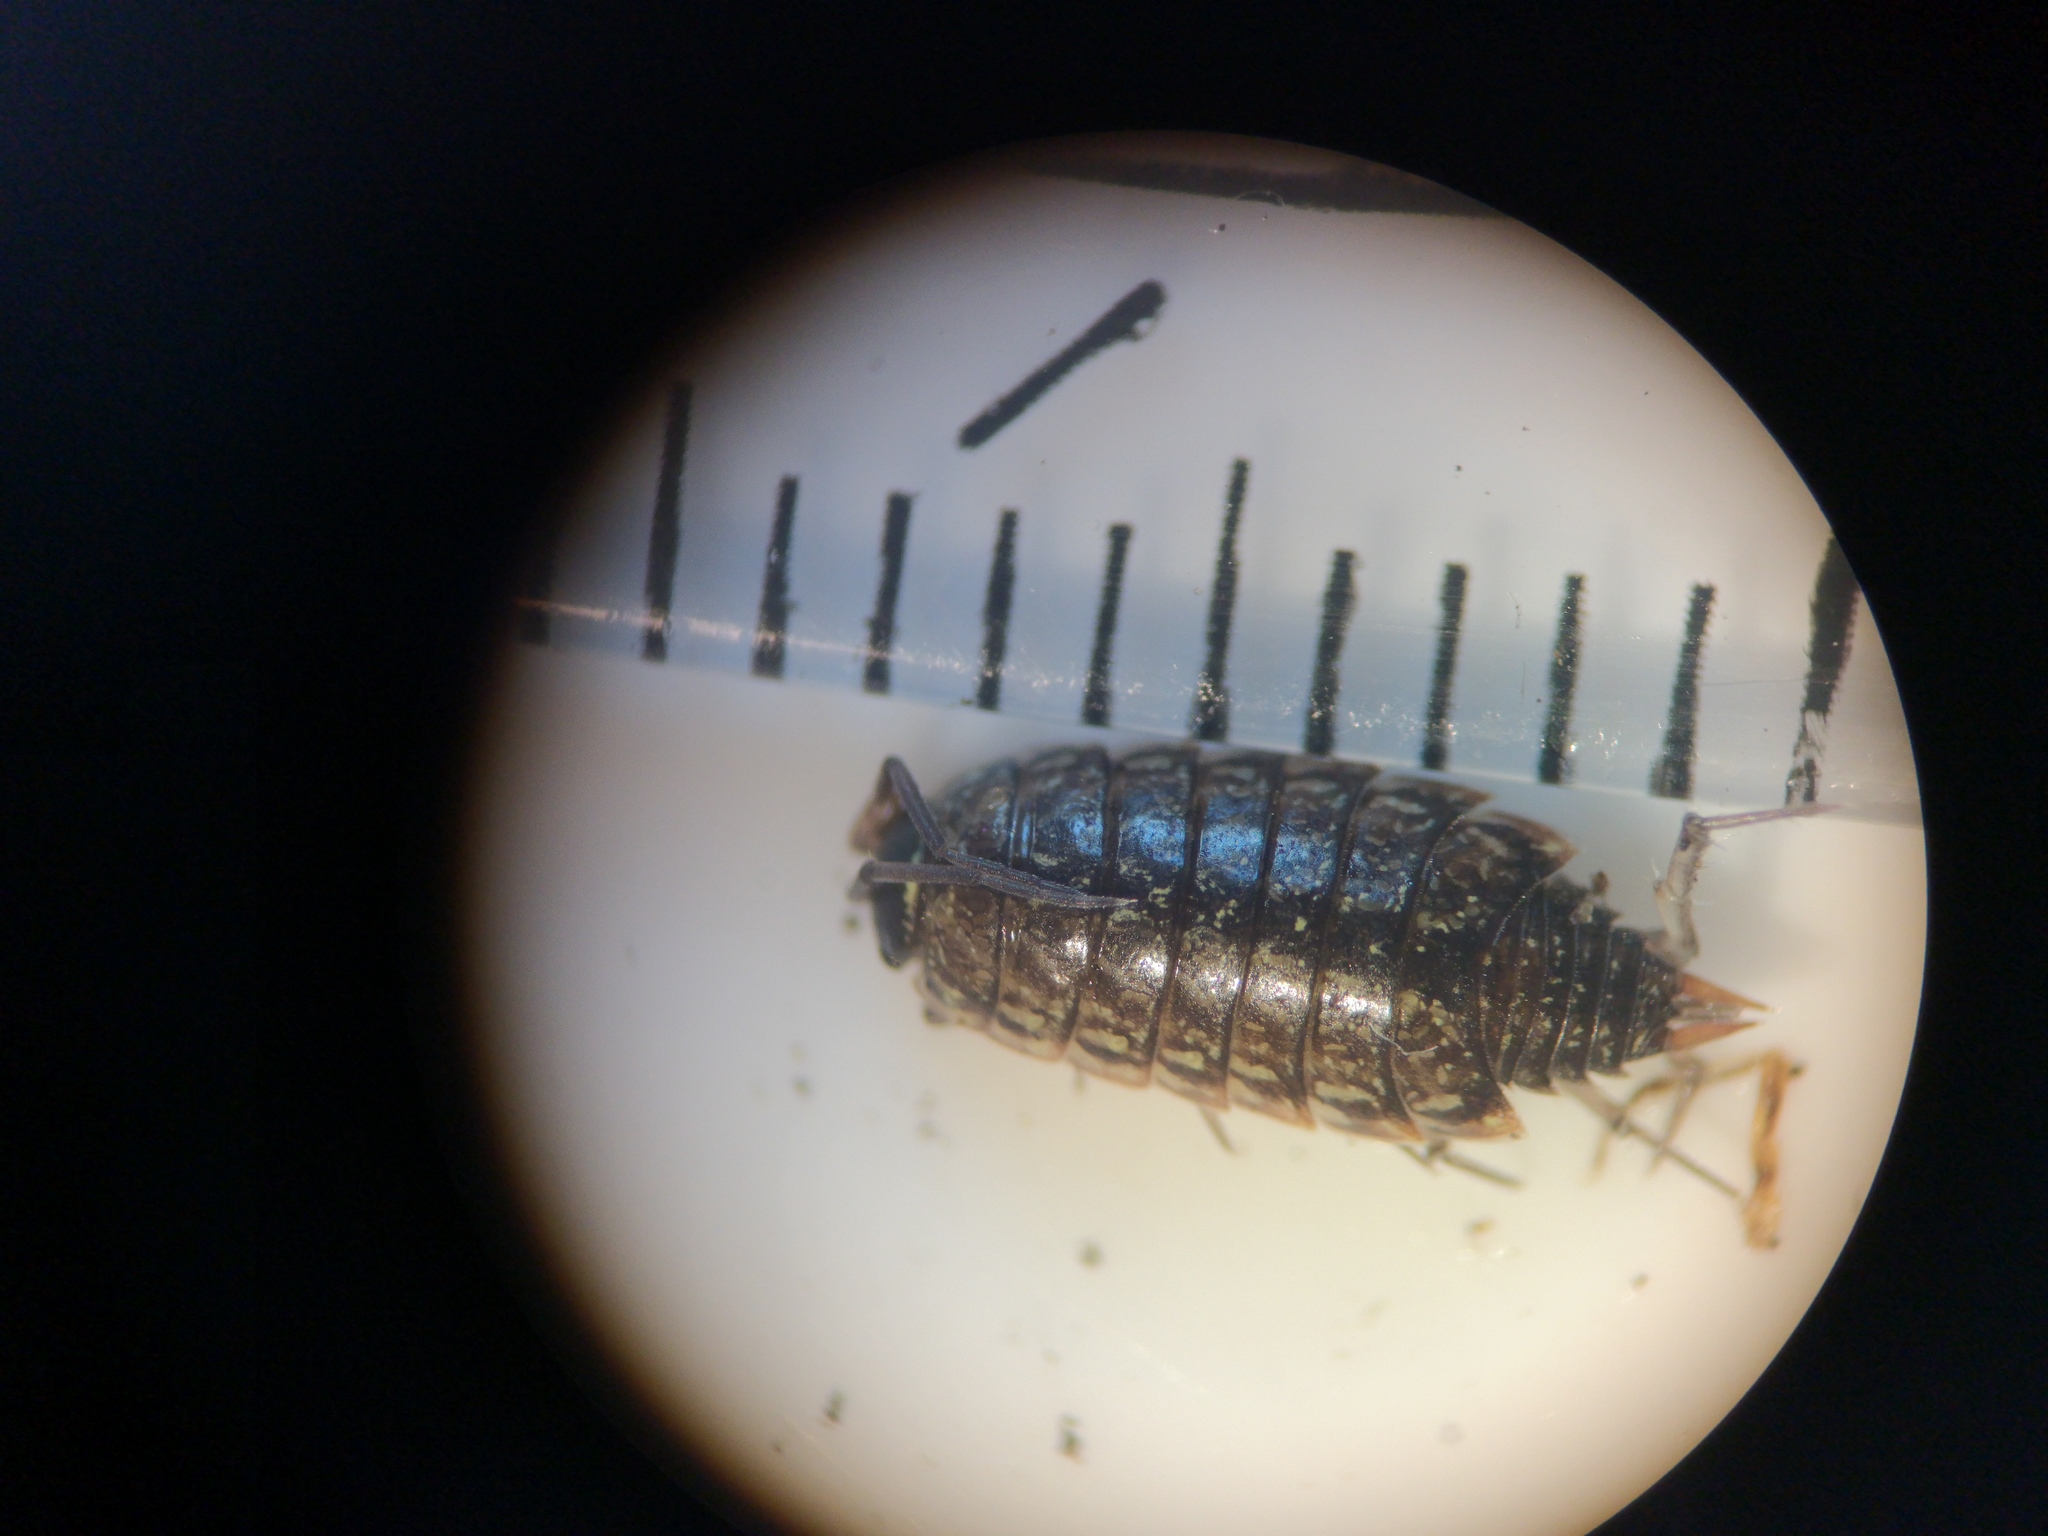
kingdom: Animalia
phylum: Arthropoda
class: Malacostraca
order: Isopoda
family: Philosciidae
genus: Philoscia
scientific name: Philoscia muscorum
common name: Common striped woodlouse
